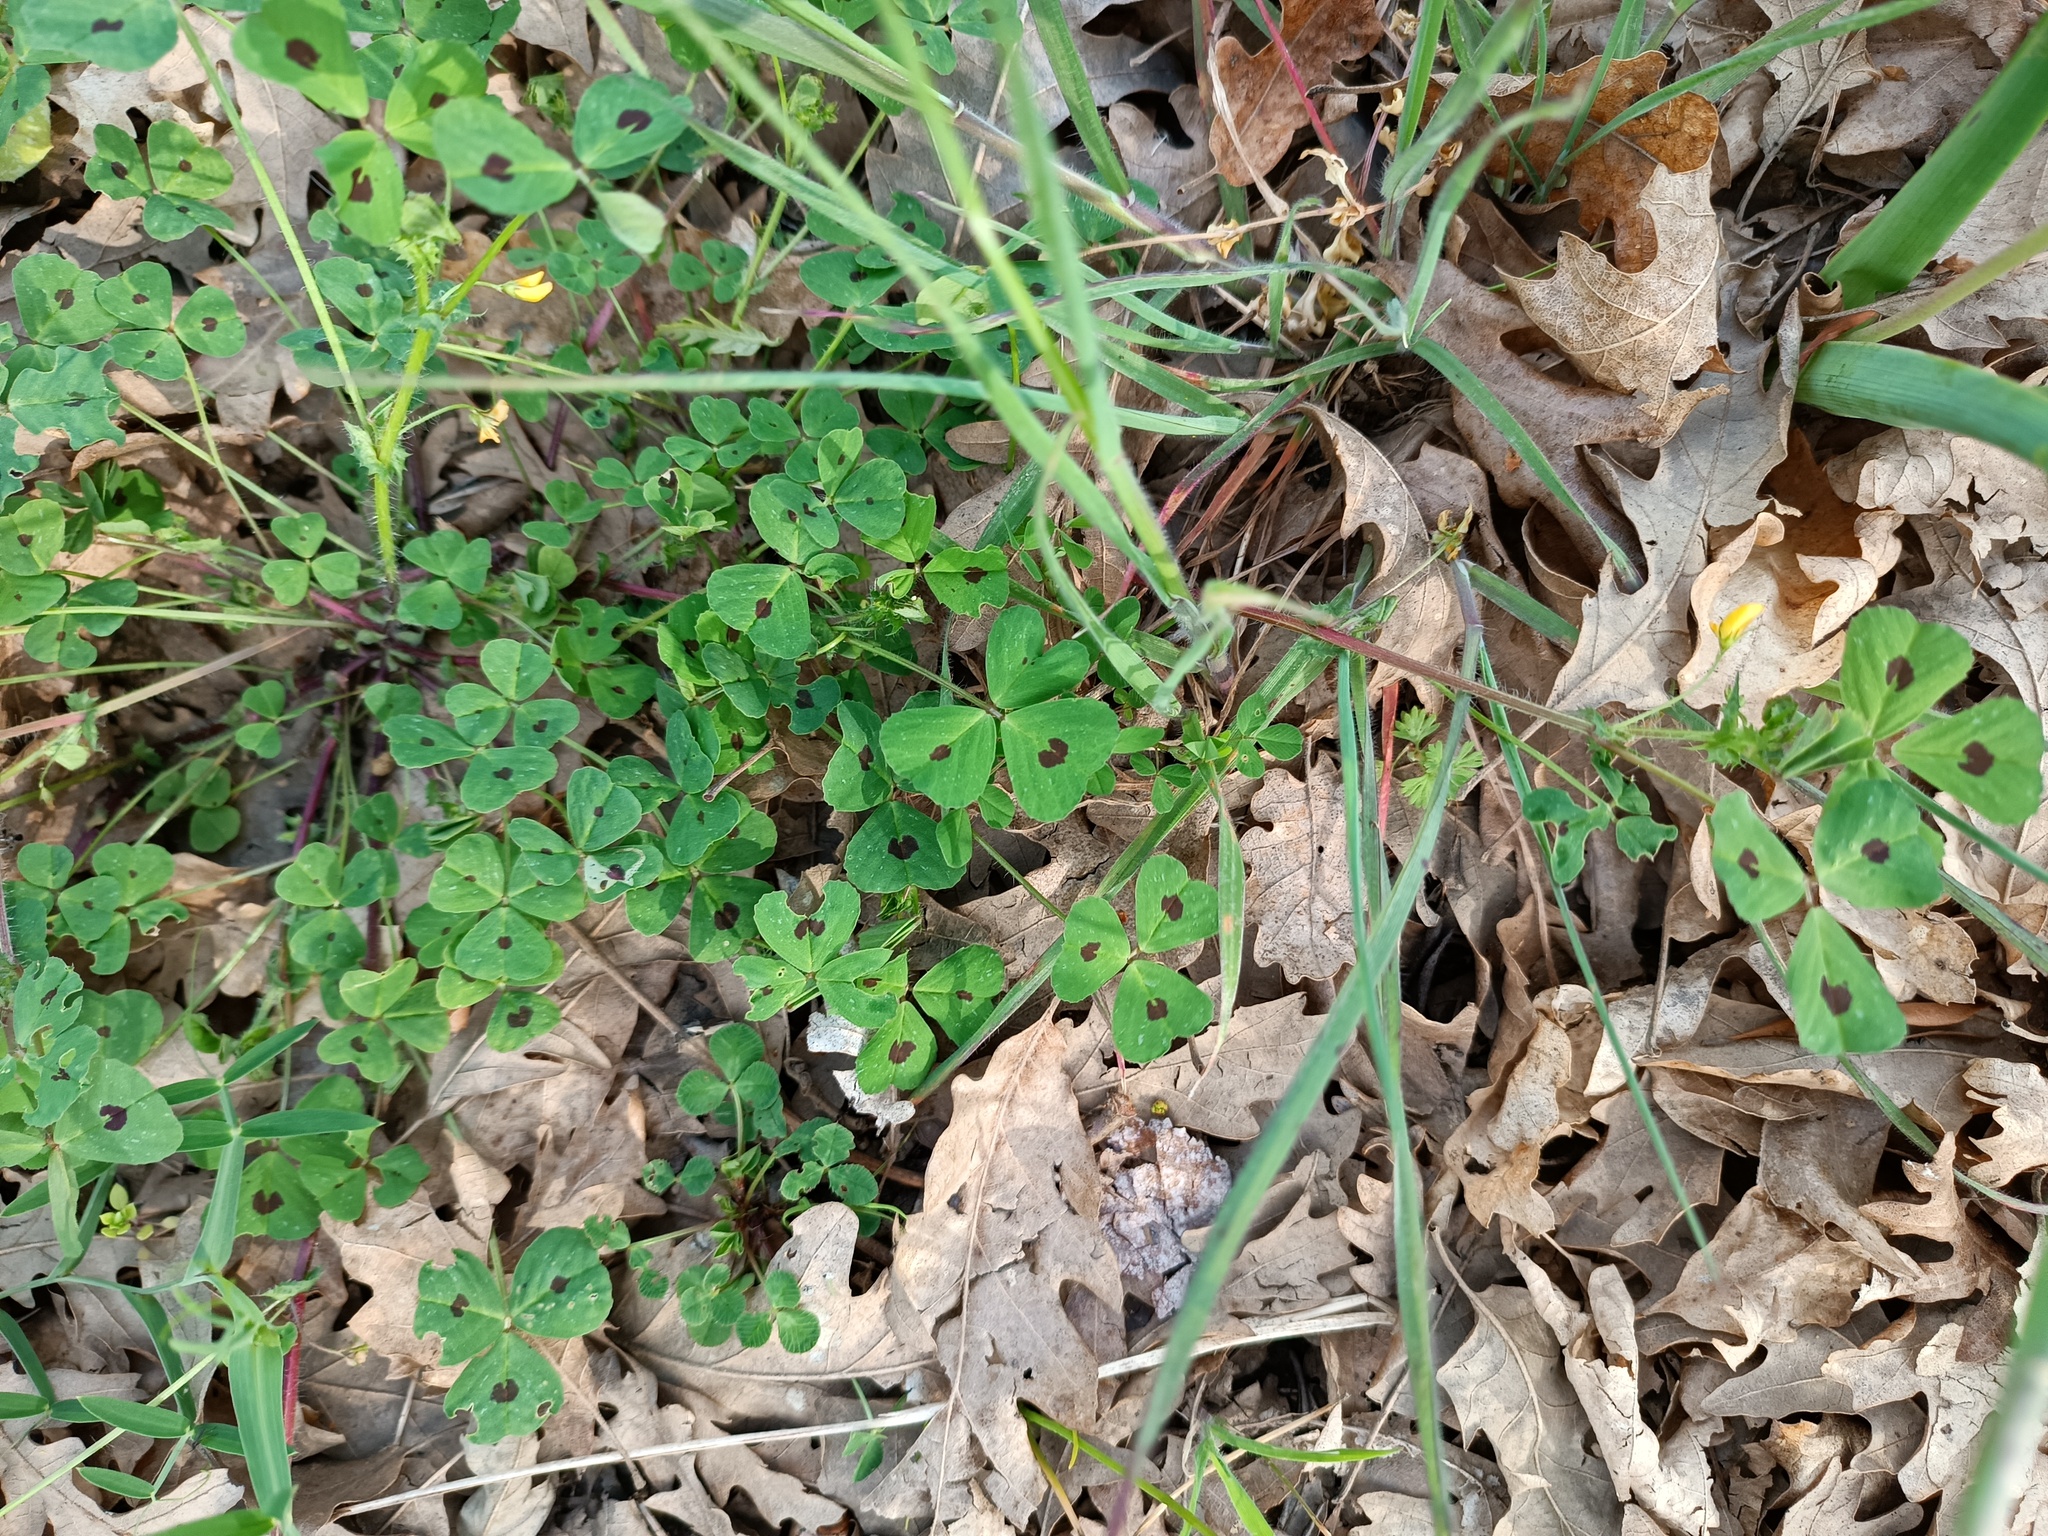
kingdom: Plantae
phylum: Tracheophyta
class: Magnoliopsida
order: Fabales
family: Fabaceae
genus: Medicago
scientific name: Medicago arabica
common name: Spotted medick
